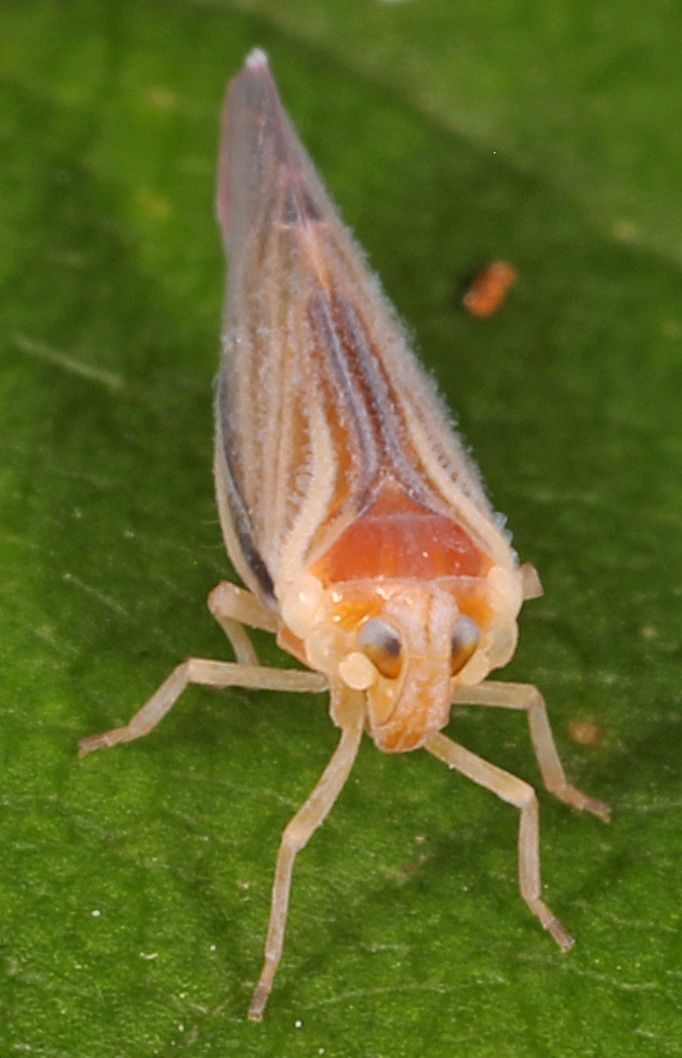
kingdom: Animalia
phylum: Arthropoda
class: Insecta
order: Hemiptera
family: Derbidae
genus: Omolicna
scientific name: Omolicna uhleri
